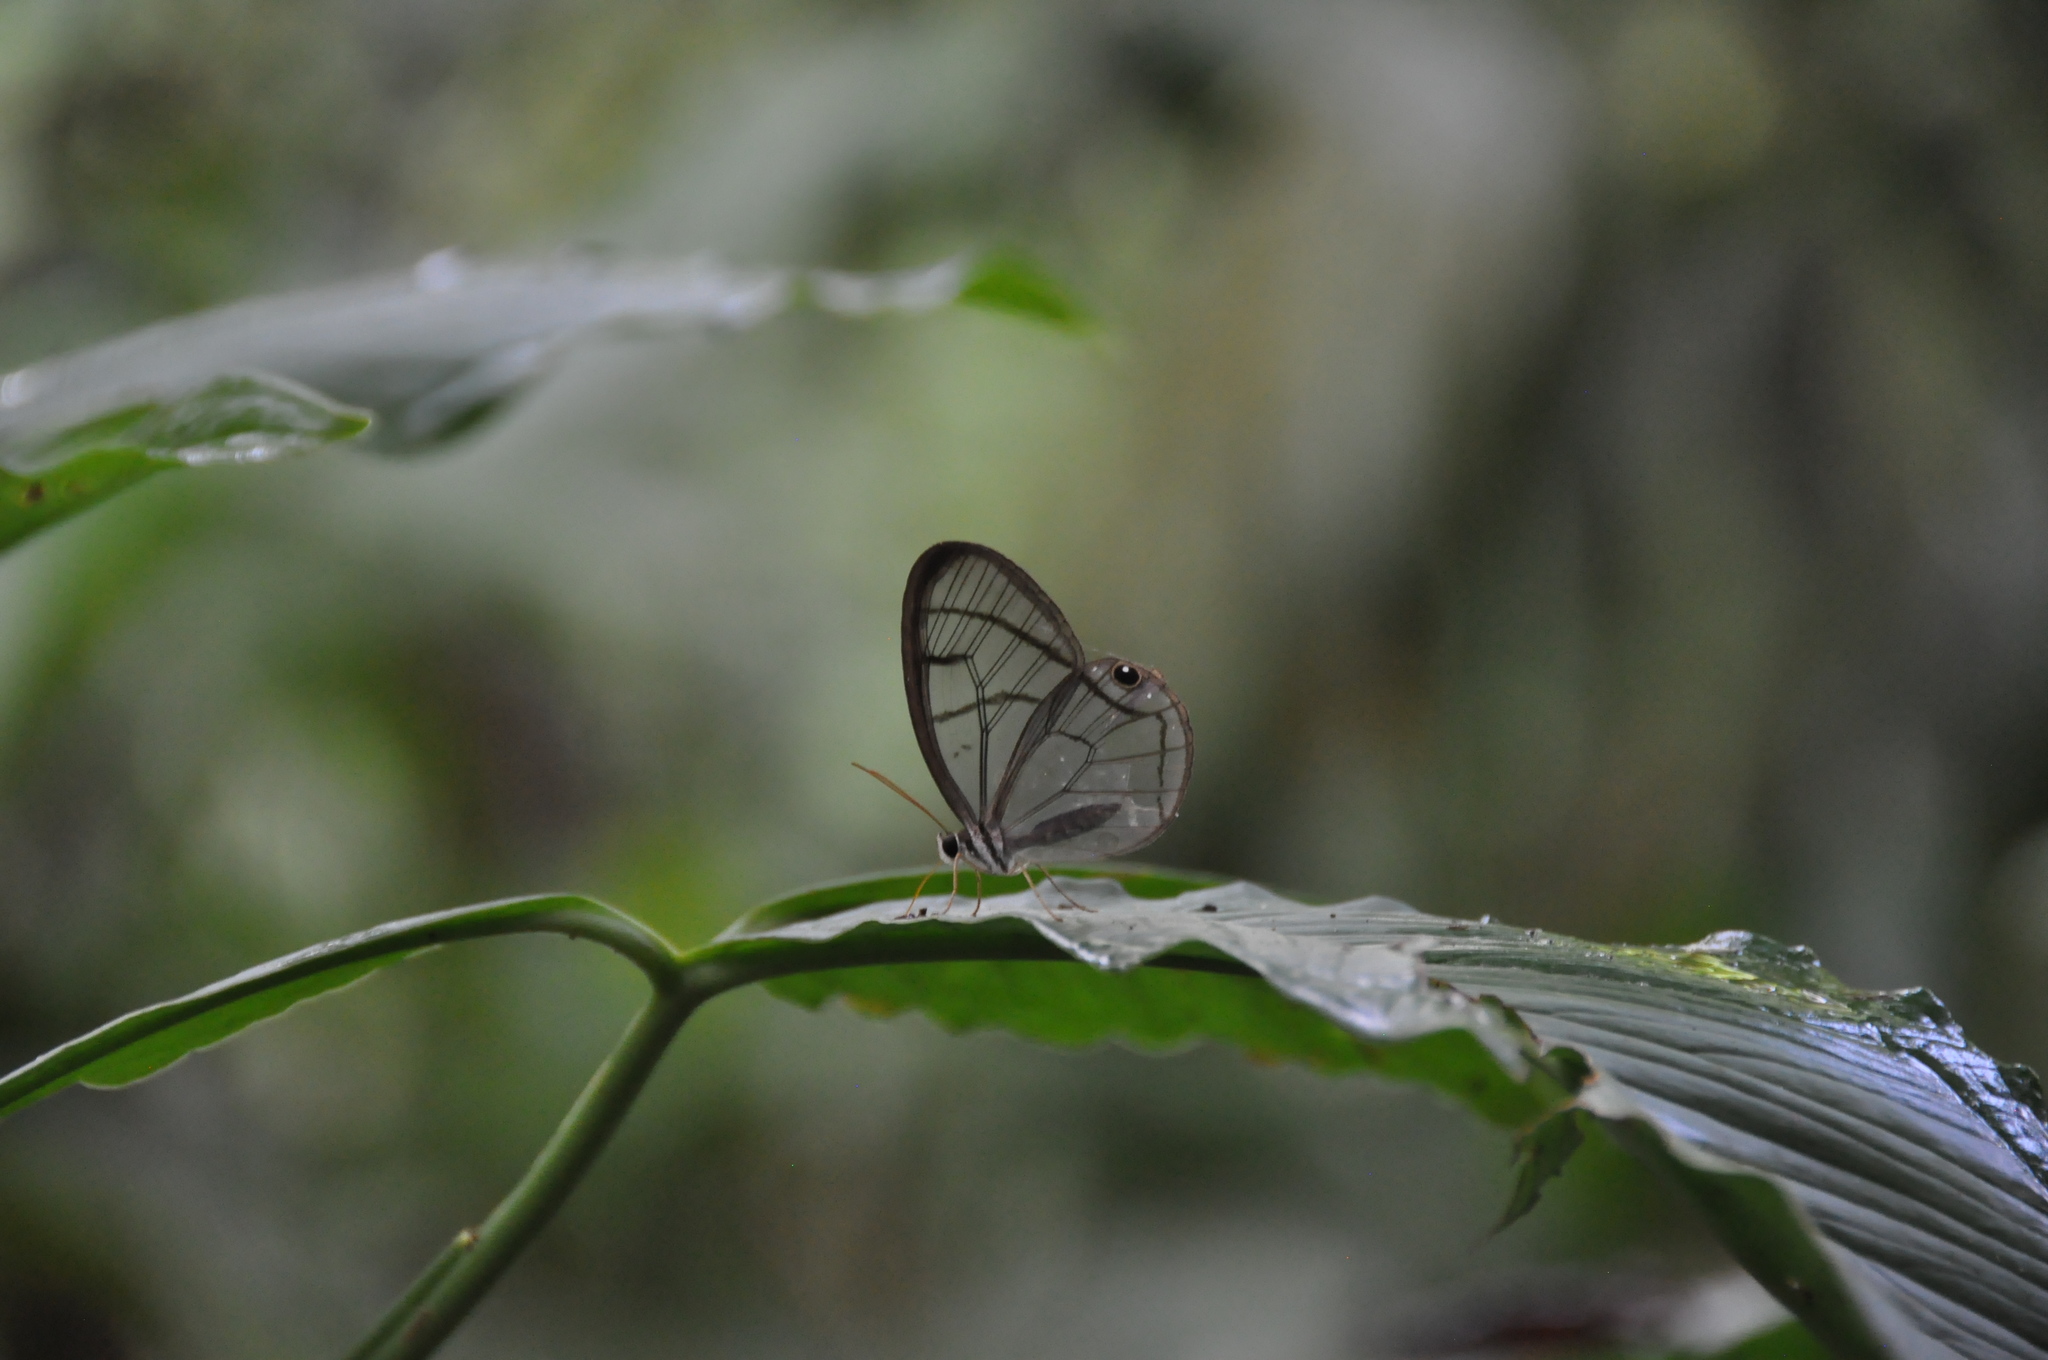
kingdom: Animalia
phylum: Arthropoda
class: Insecta
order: Lepidoptera
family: Nymphalidae
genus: Dulcedo
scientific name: Dulcedo polita
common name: Uncolored clearwing-satyr
